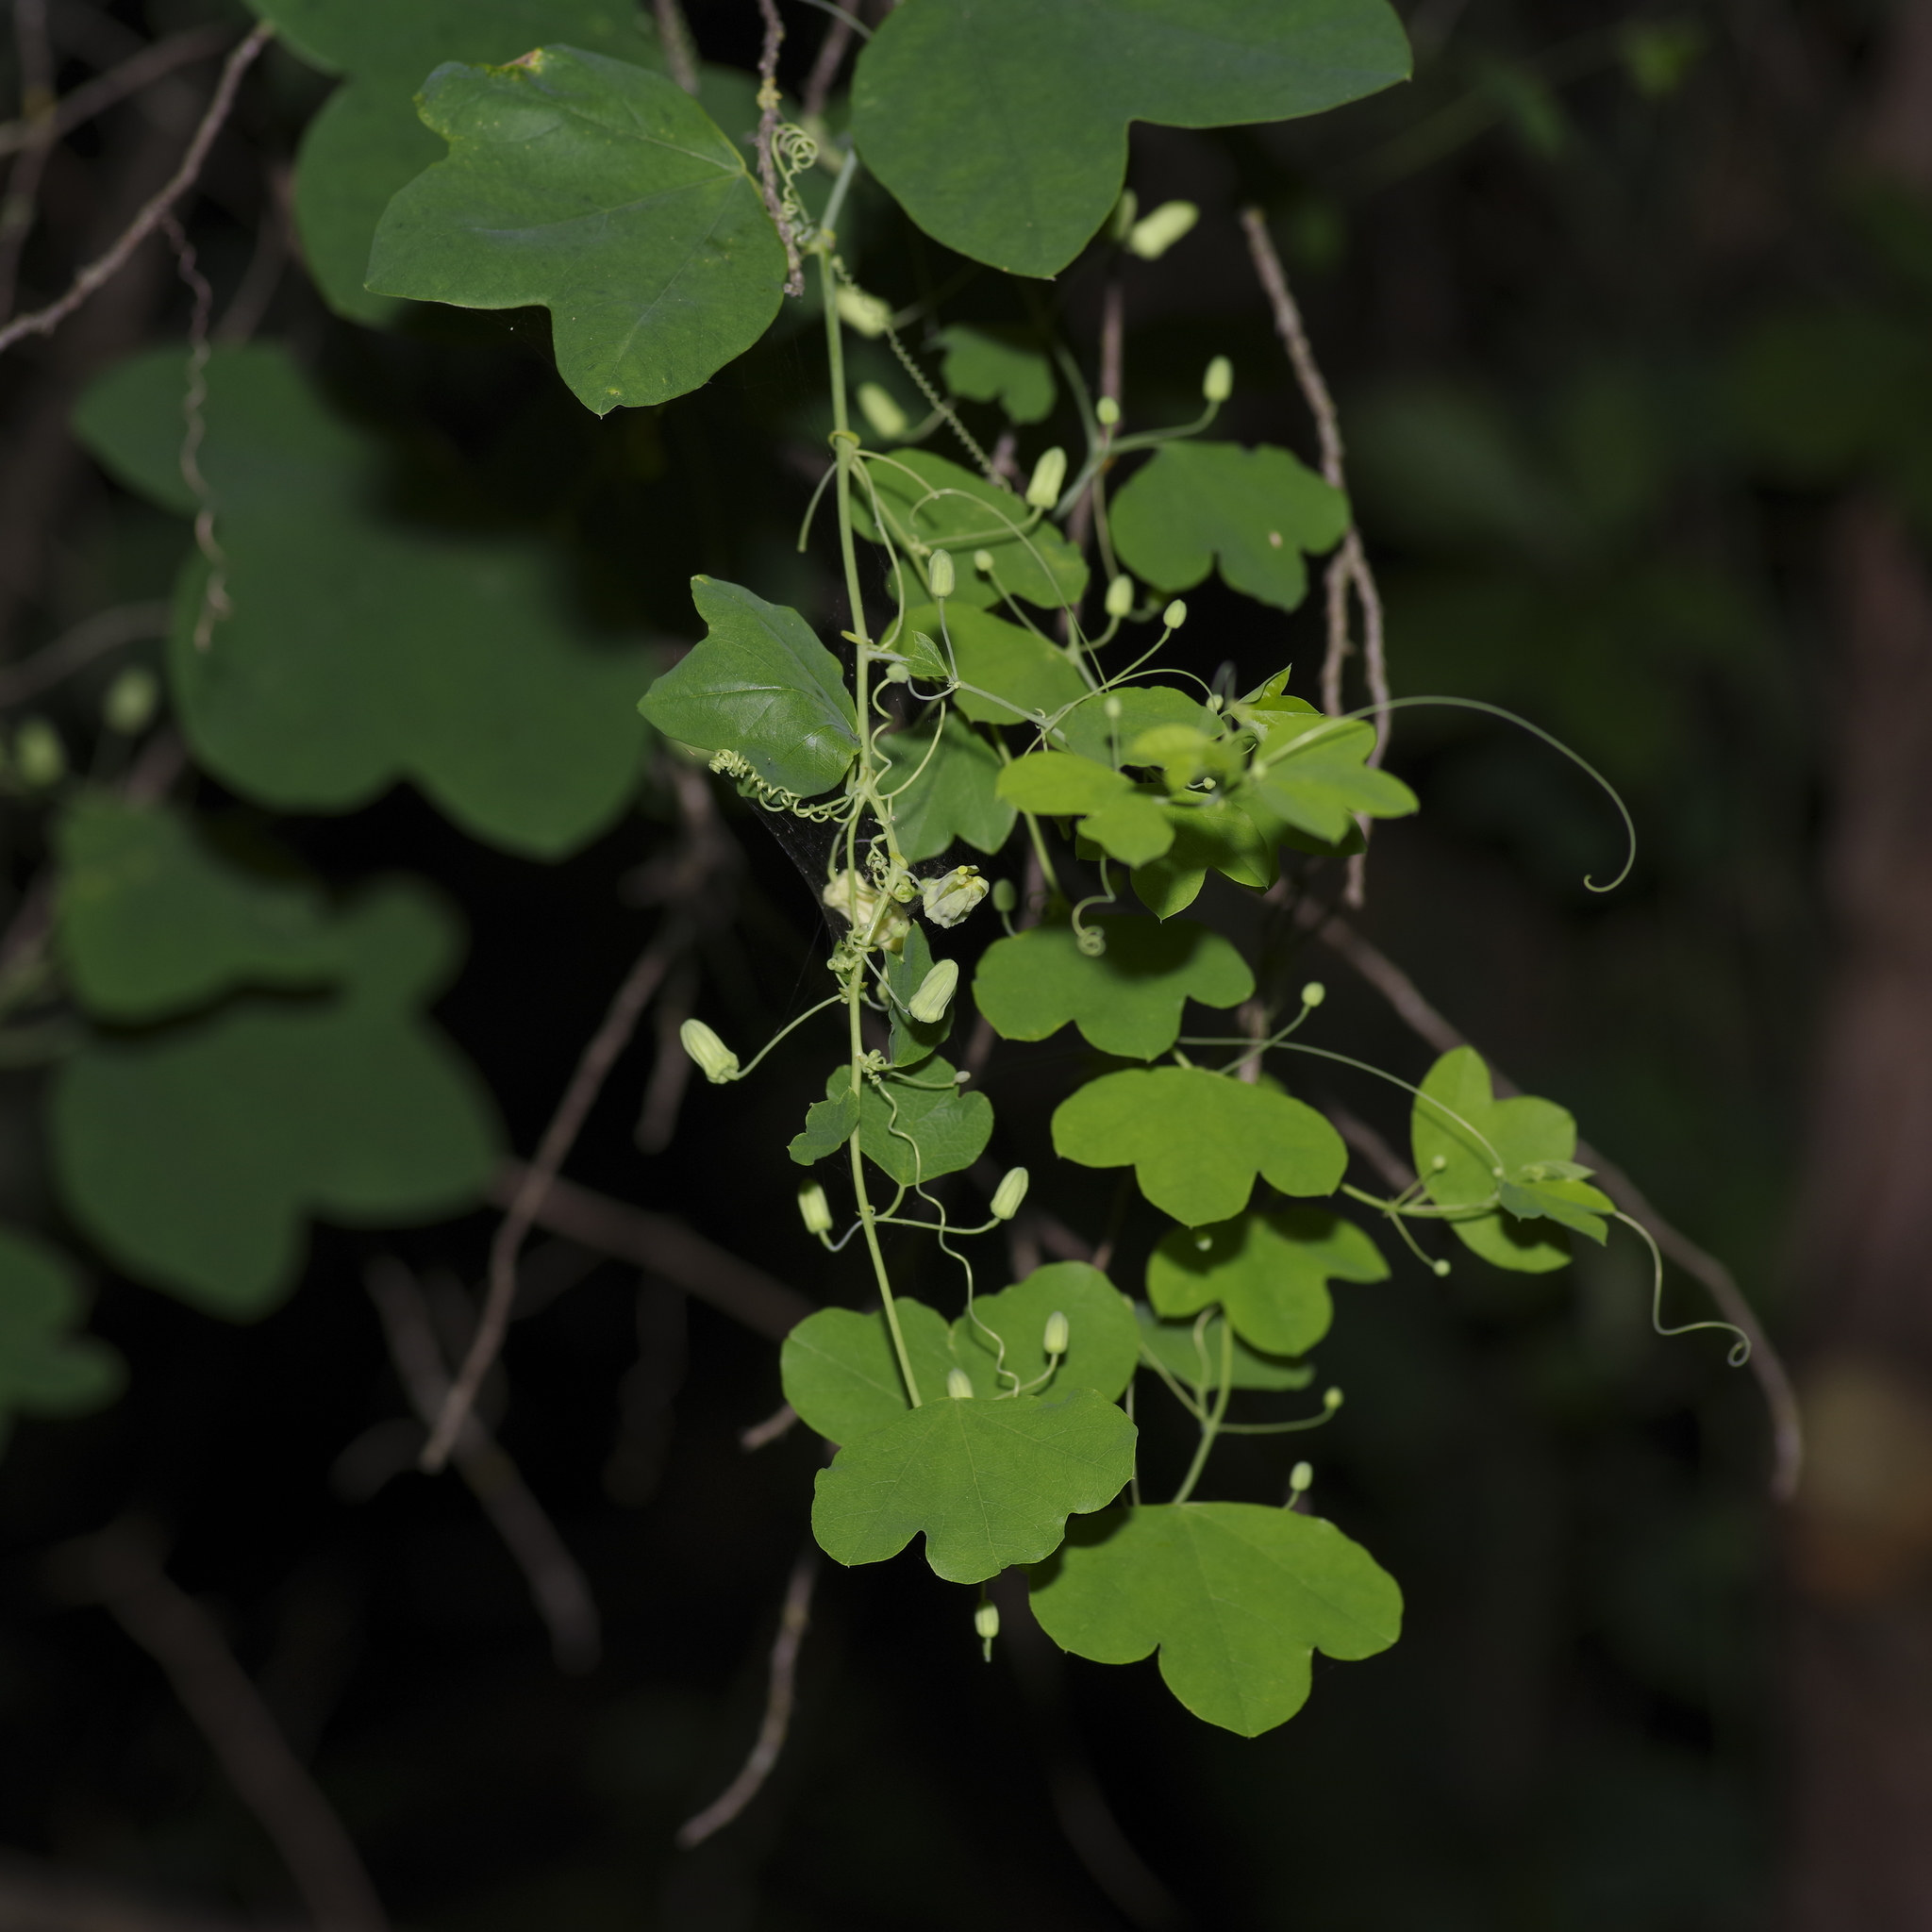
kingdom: Plantae
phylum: Tracheophyta
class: Magnoliopsida
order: Malpighiales
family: Passifloraceae
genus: Passiflora
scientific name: Passiflora lutea
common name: Yellow passionflower
